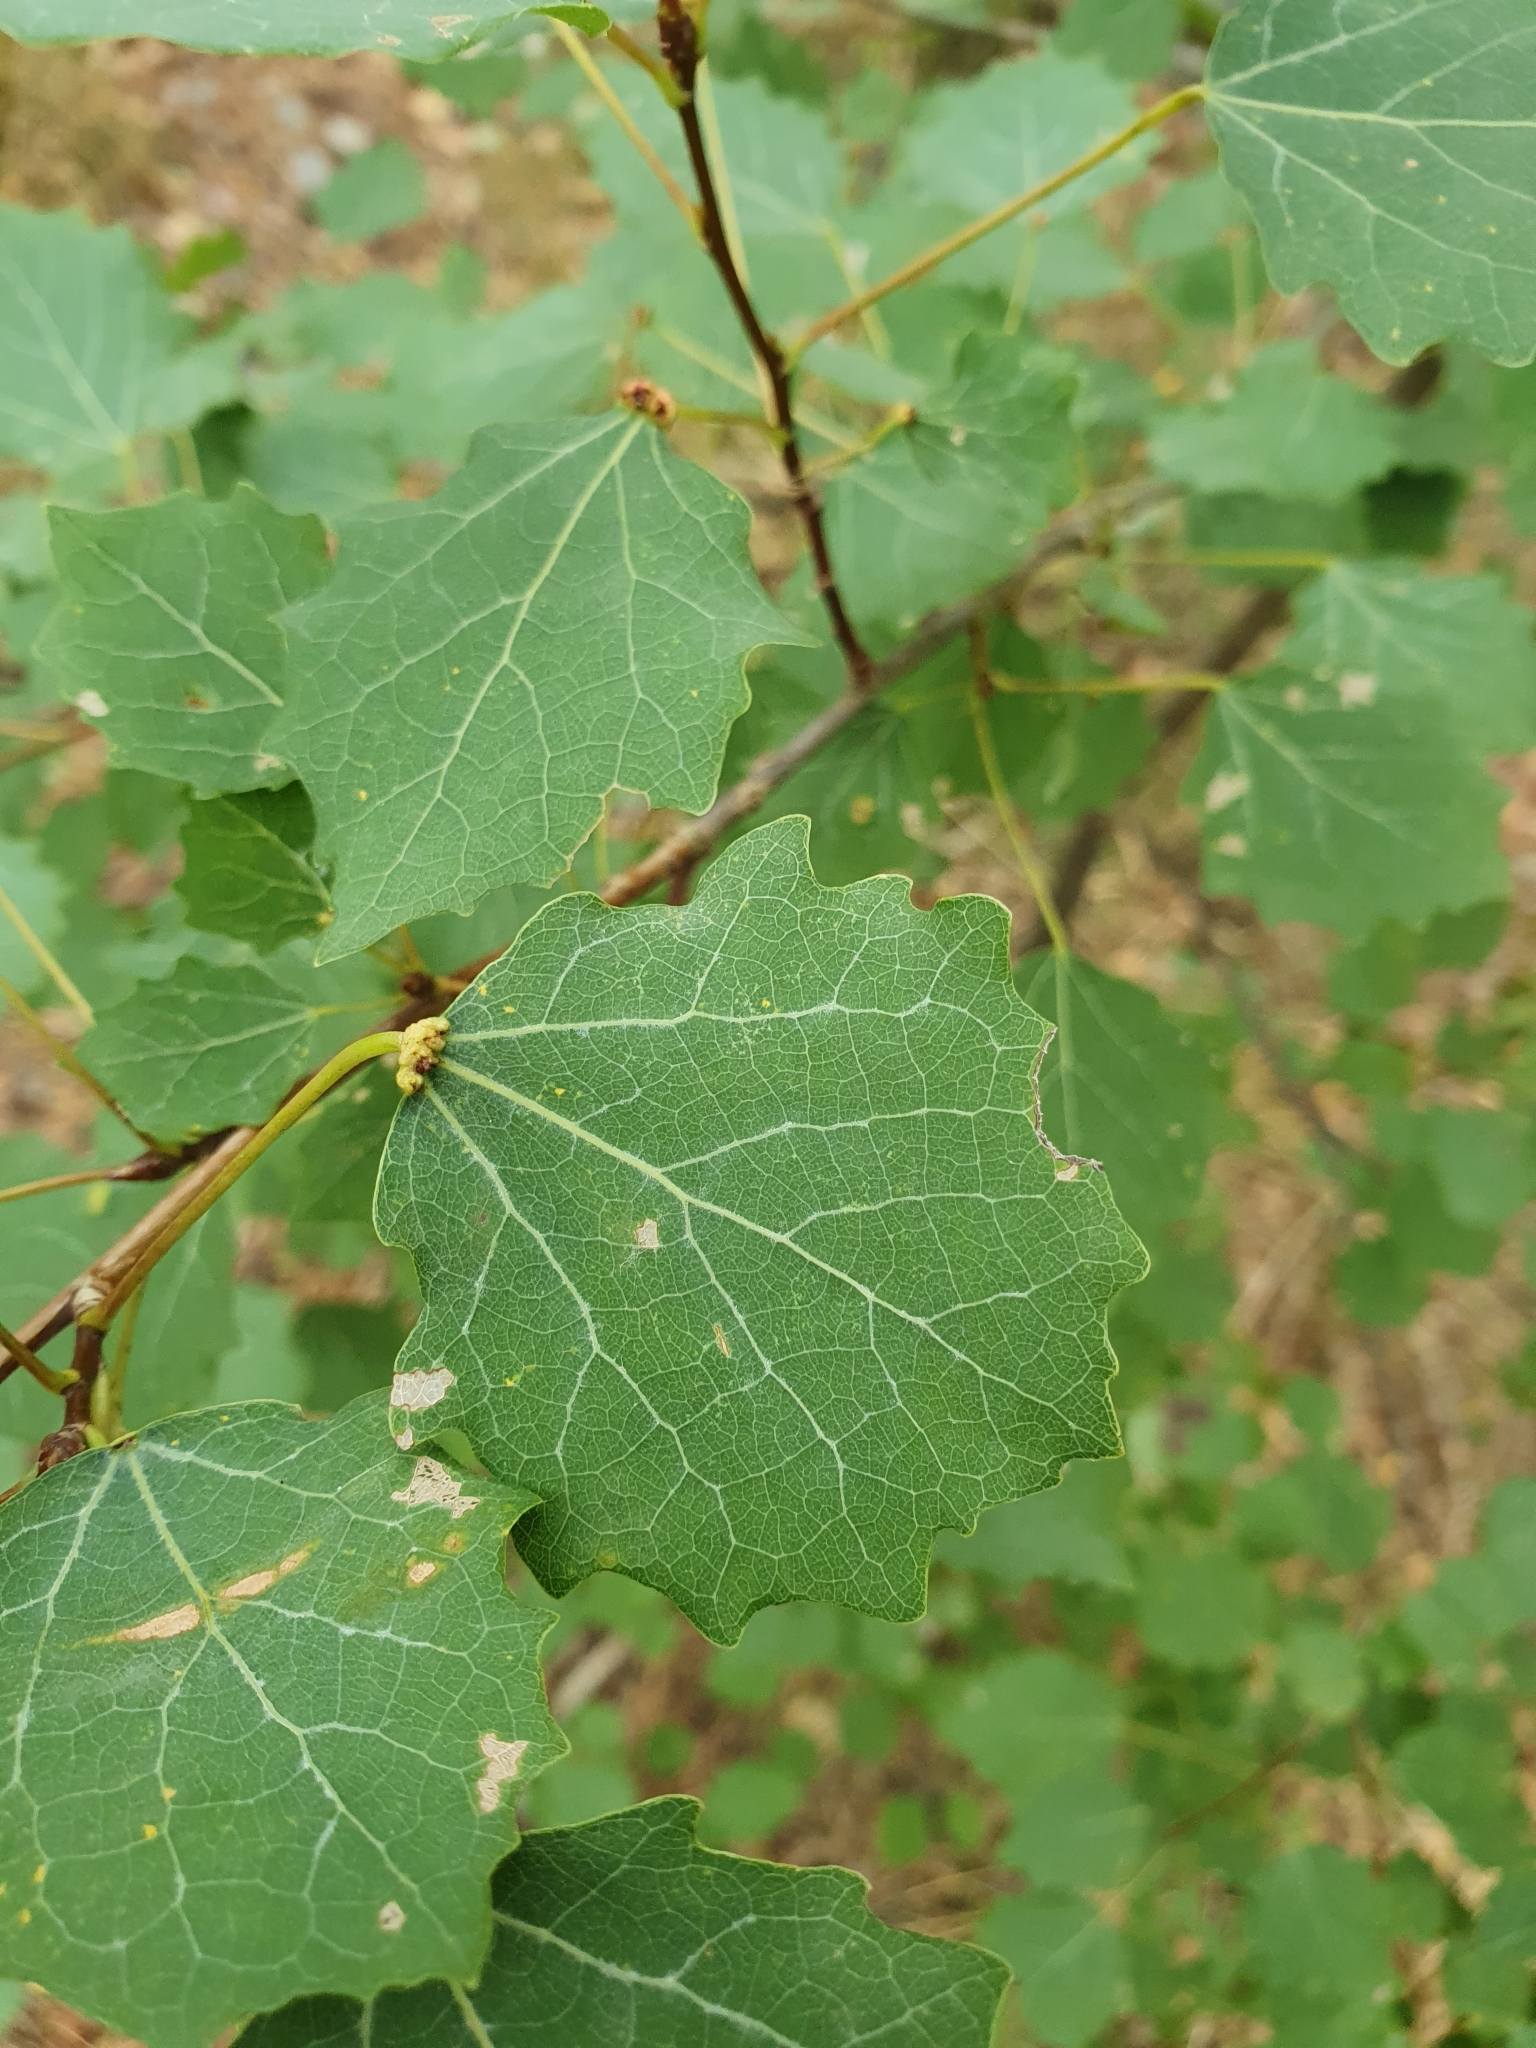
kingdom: Animalia
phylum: Arthropoda
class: Arachnida
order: Trombidiformes
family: Eriophyidae
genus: Eriophyes
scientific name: Eriophyes diversipunctatus
